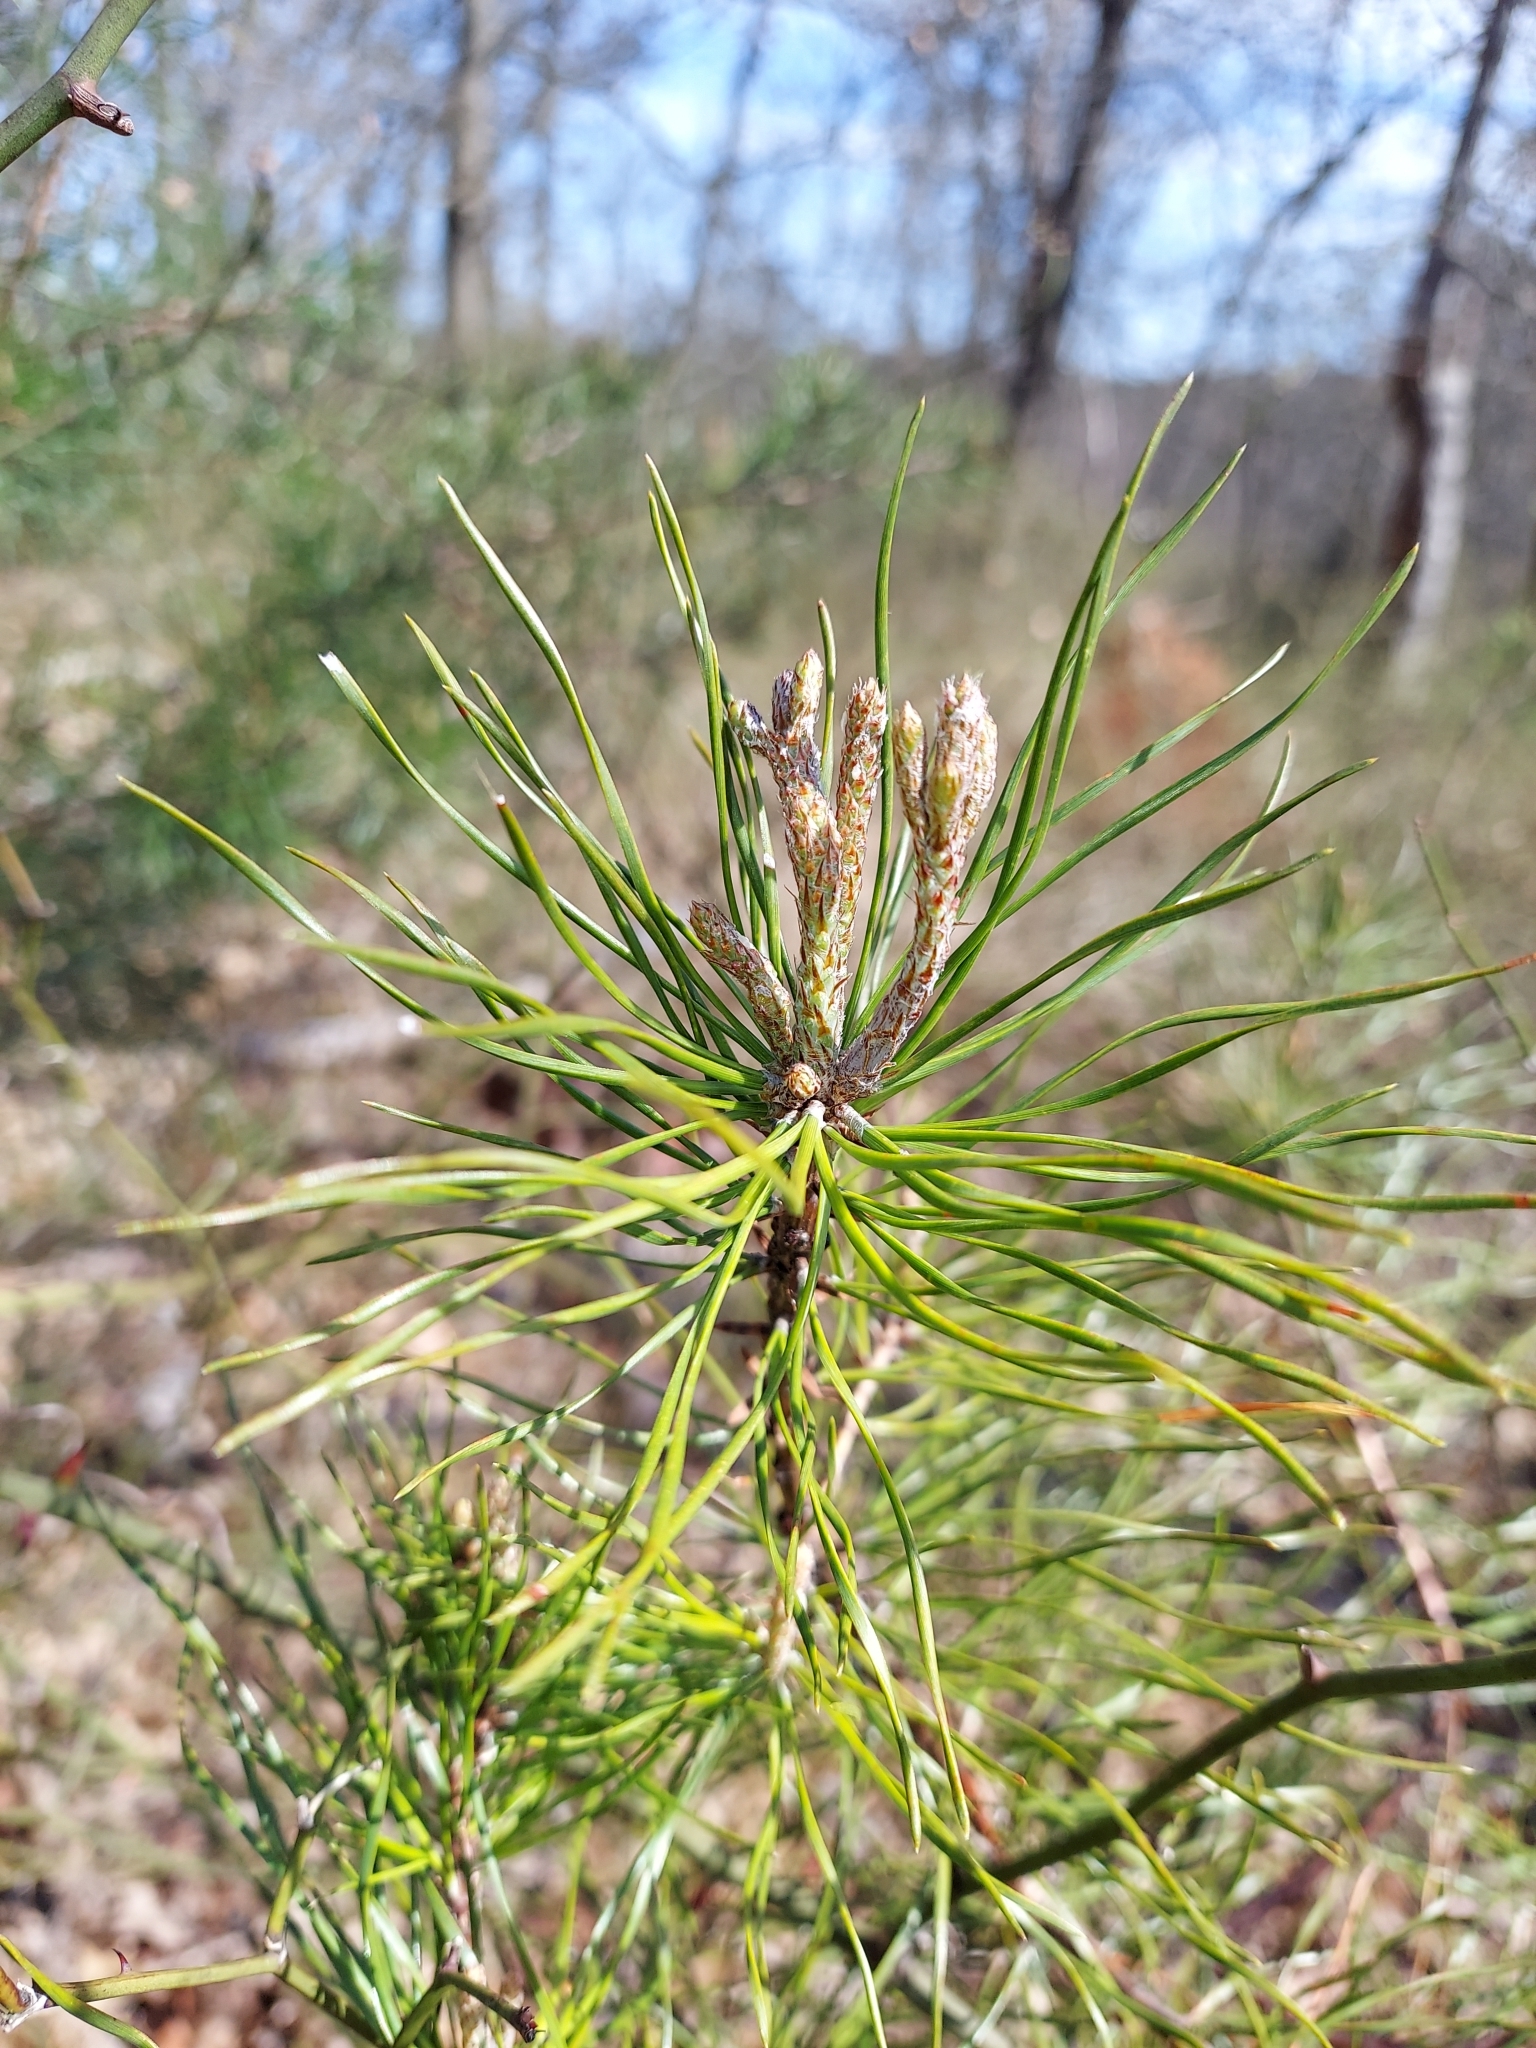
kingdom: Plantae
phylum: Tracheophyta
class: Pinopsida
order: Pinales
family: Pinaceae
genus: Pinus
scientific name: Pinus virginiana
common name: Scrub pine
